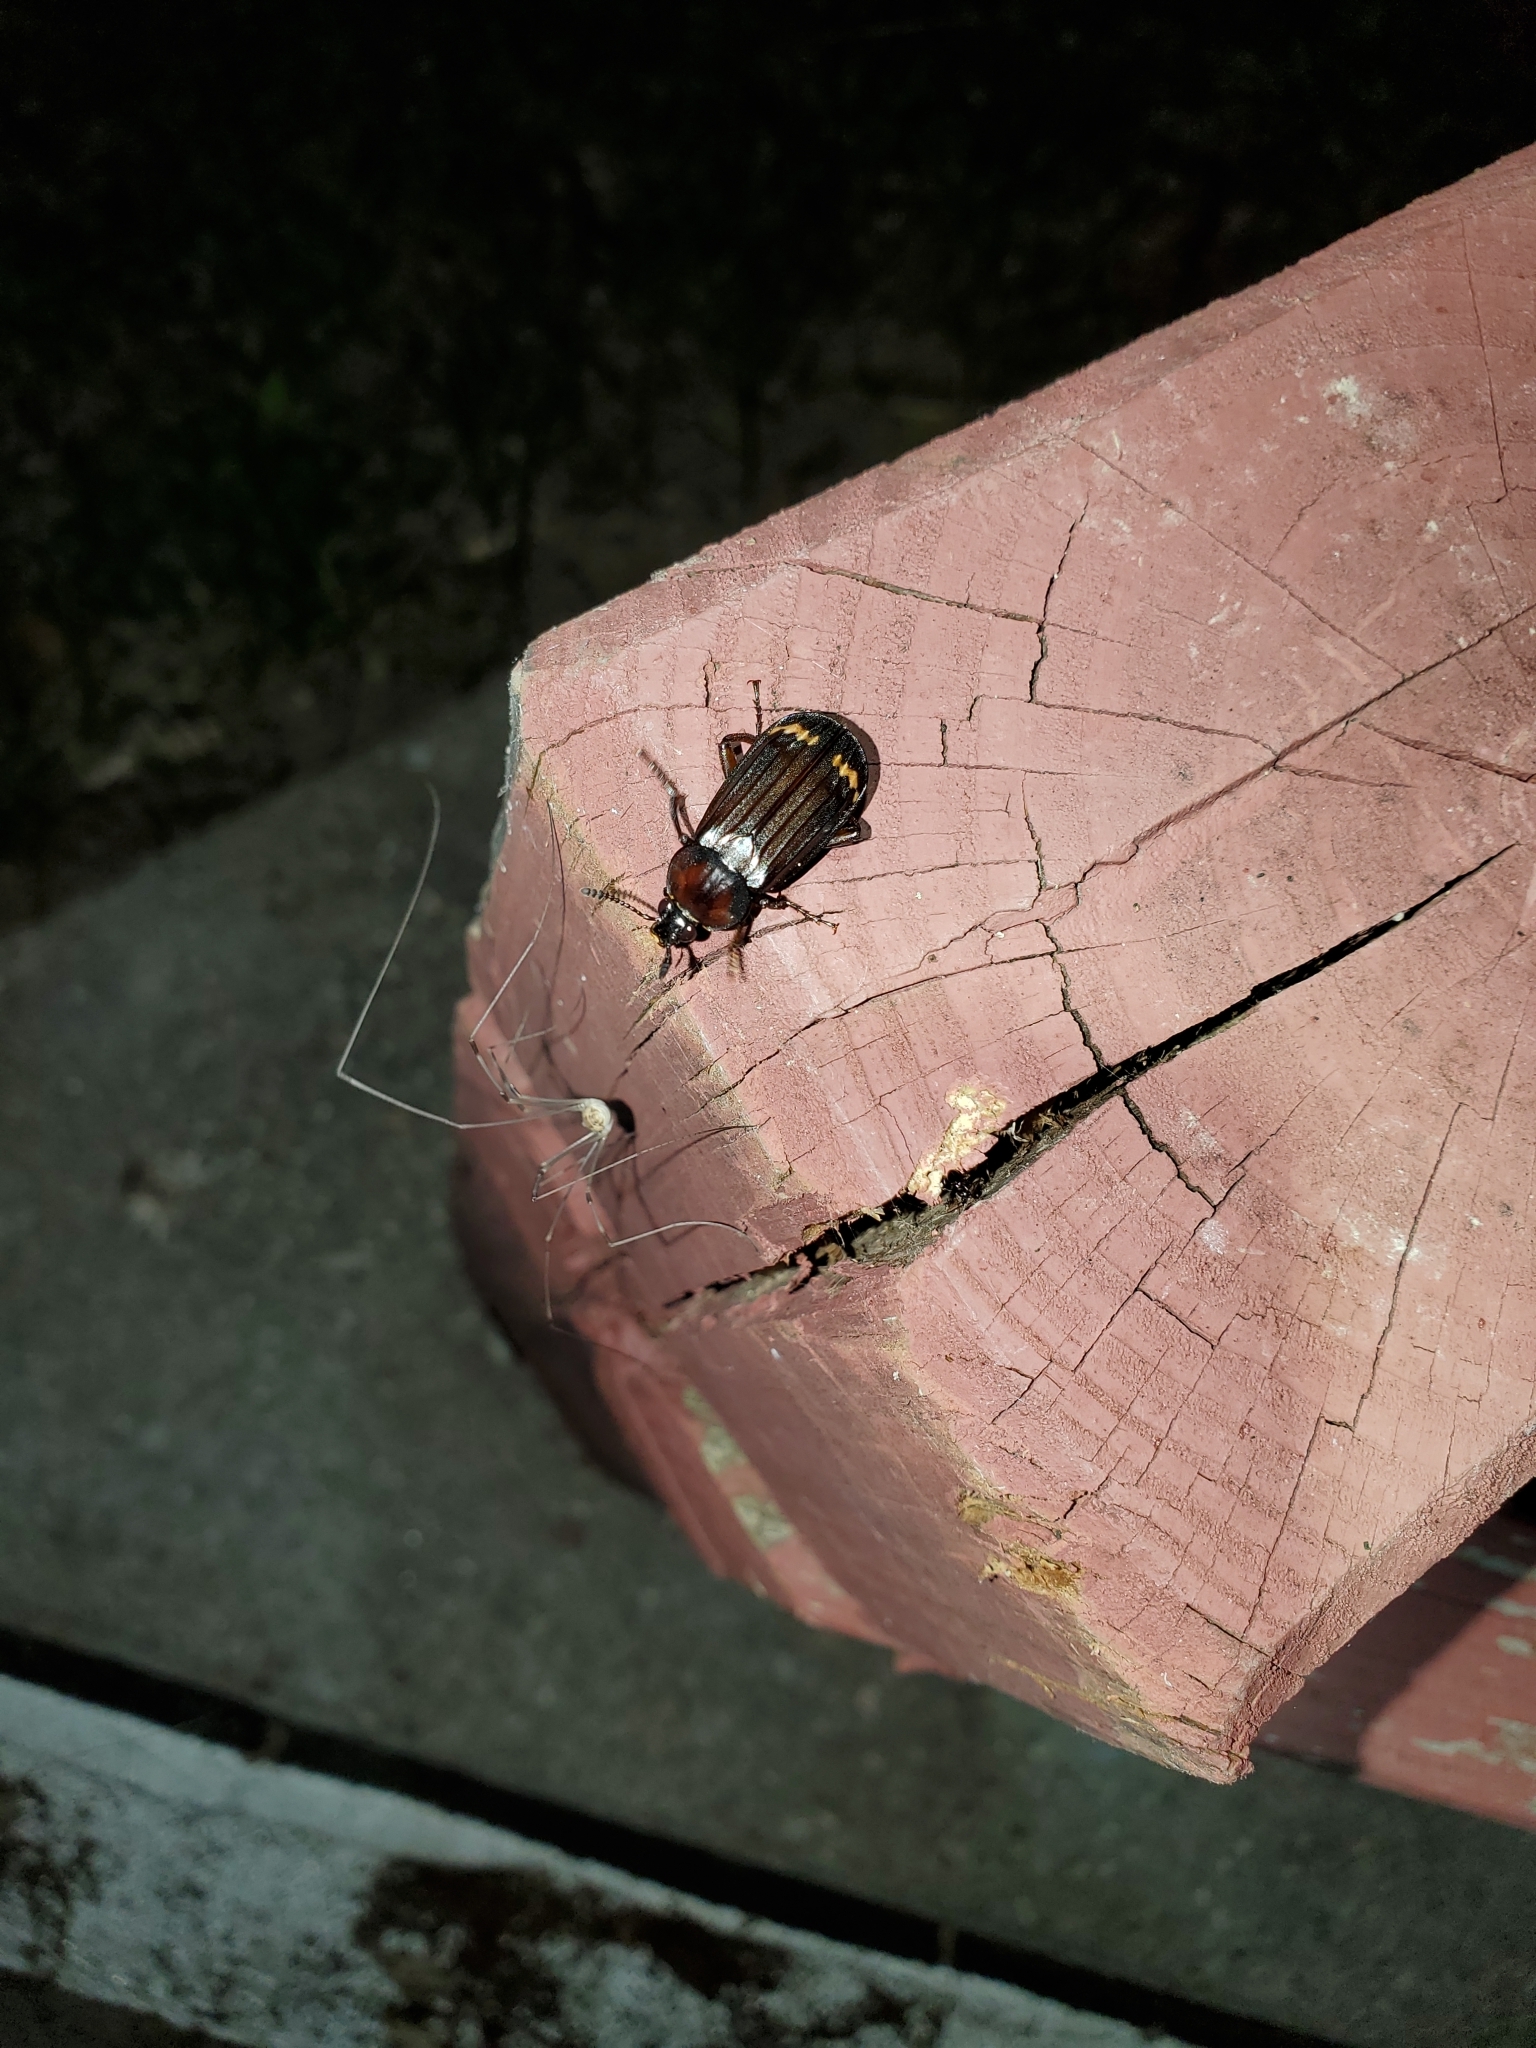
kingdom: Animalia
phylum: Arthropoda
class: Insecta
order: Coleoptera
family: Staphylinidae
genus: Necrodes
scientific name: Necrodes surinamensis
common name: Red-lined carrion beetle
